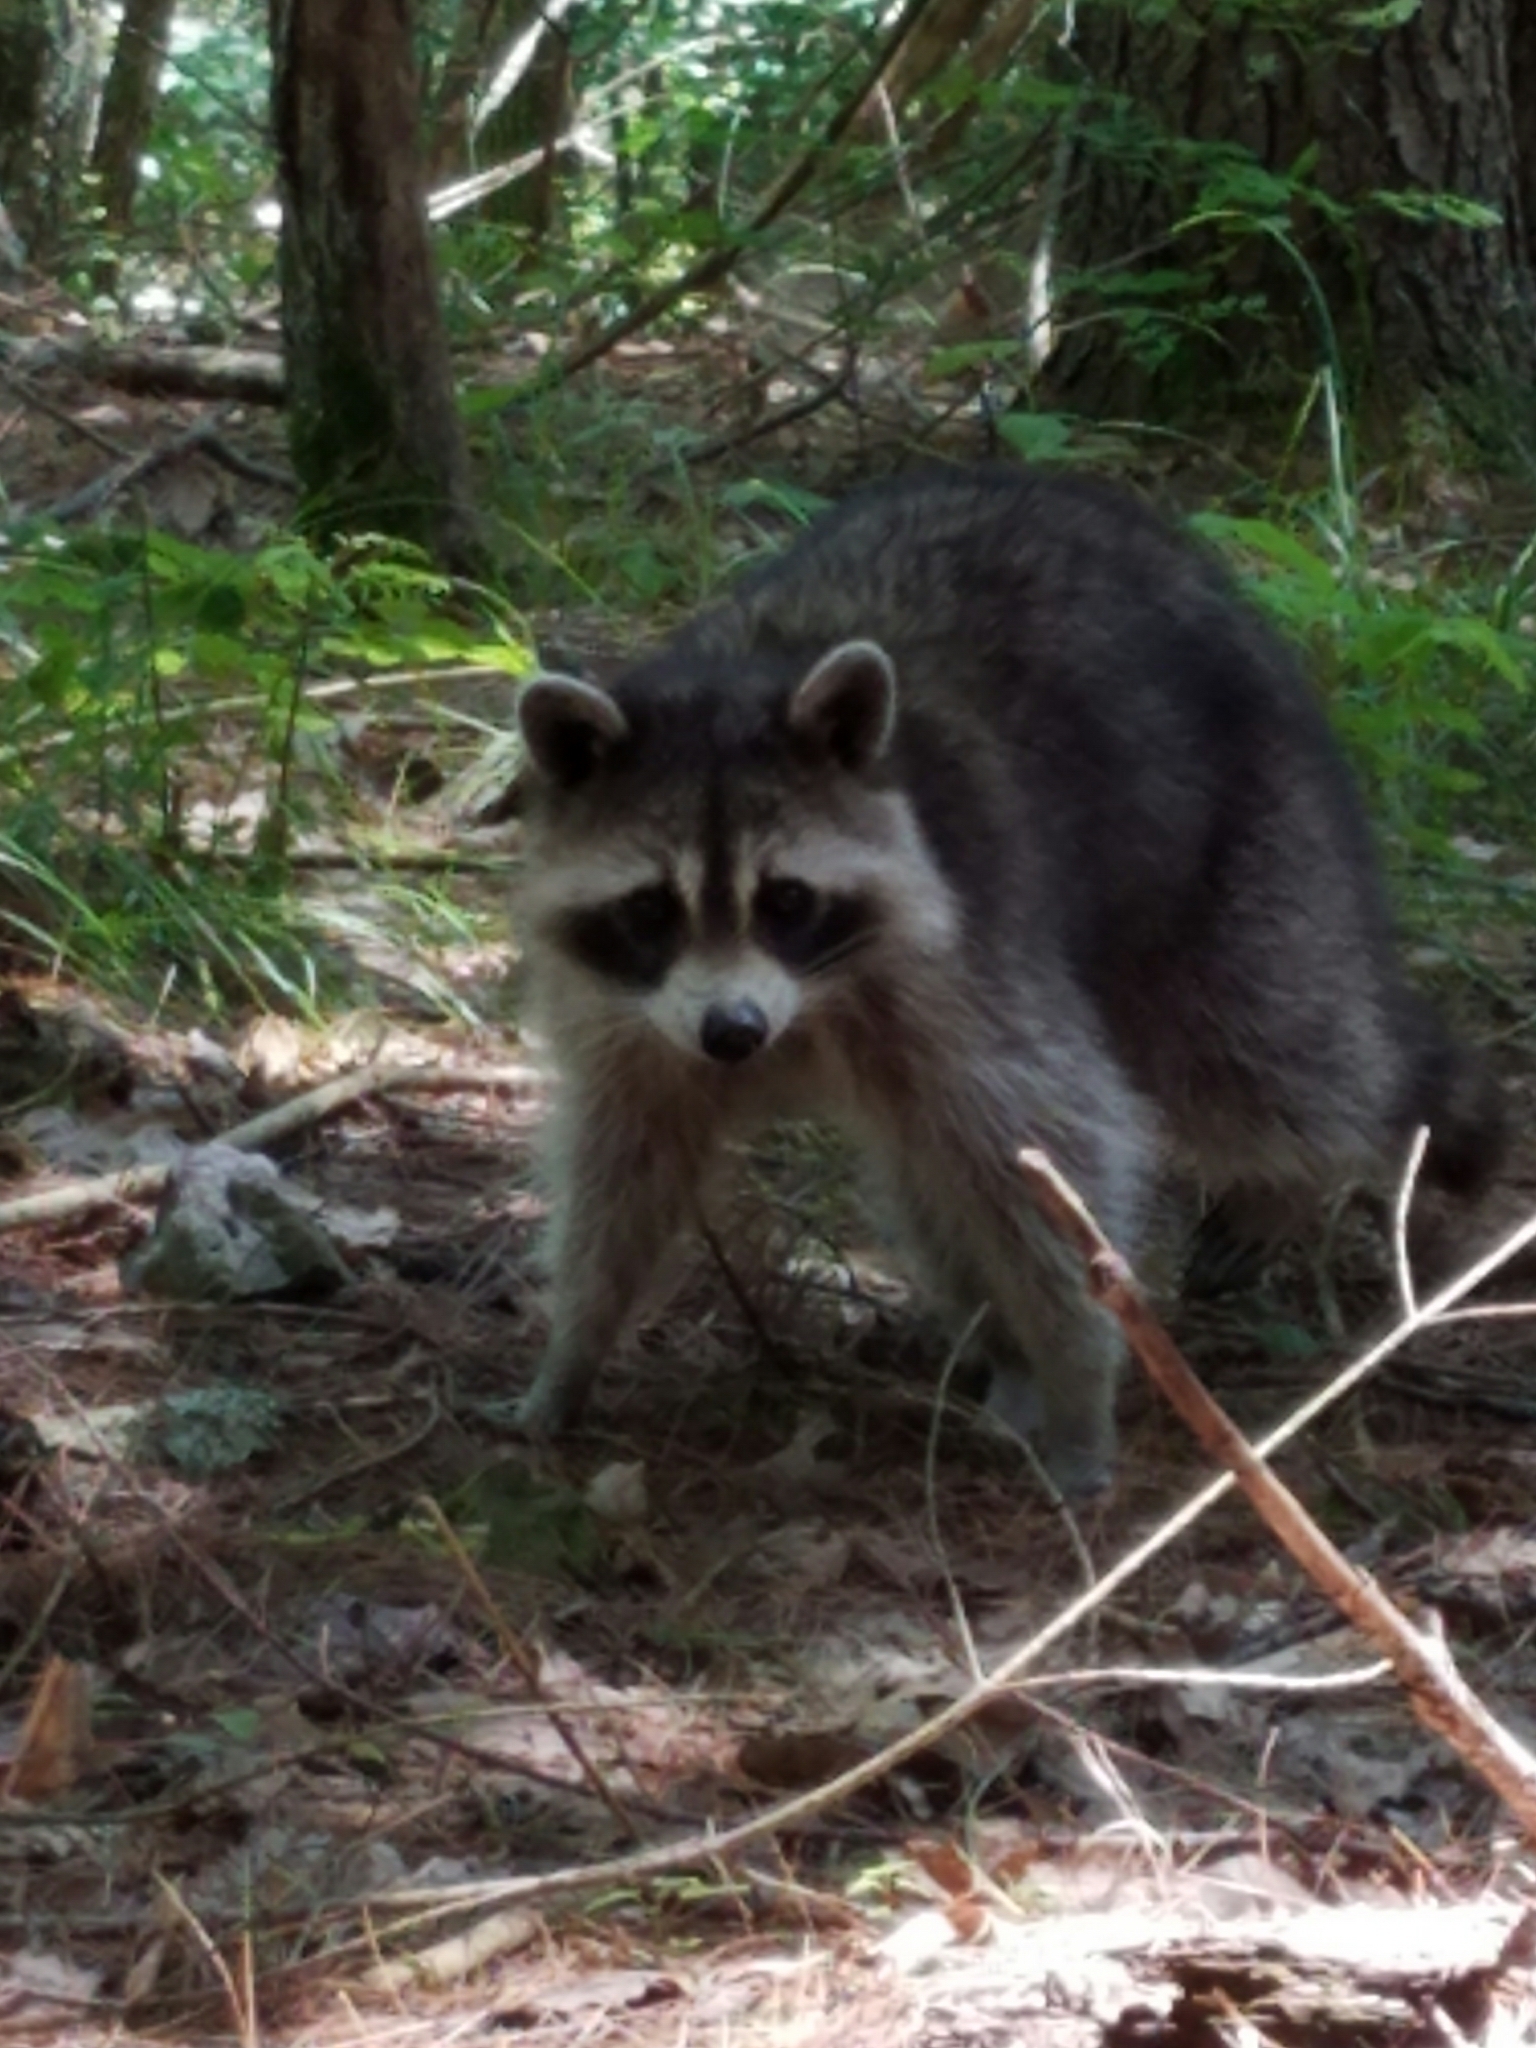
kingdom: Animalia
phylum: Chordata
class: Mammalia
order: Carnivora
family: Procyonidae
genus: Procyon
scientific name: Procyon lotor
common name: Raccoon
